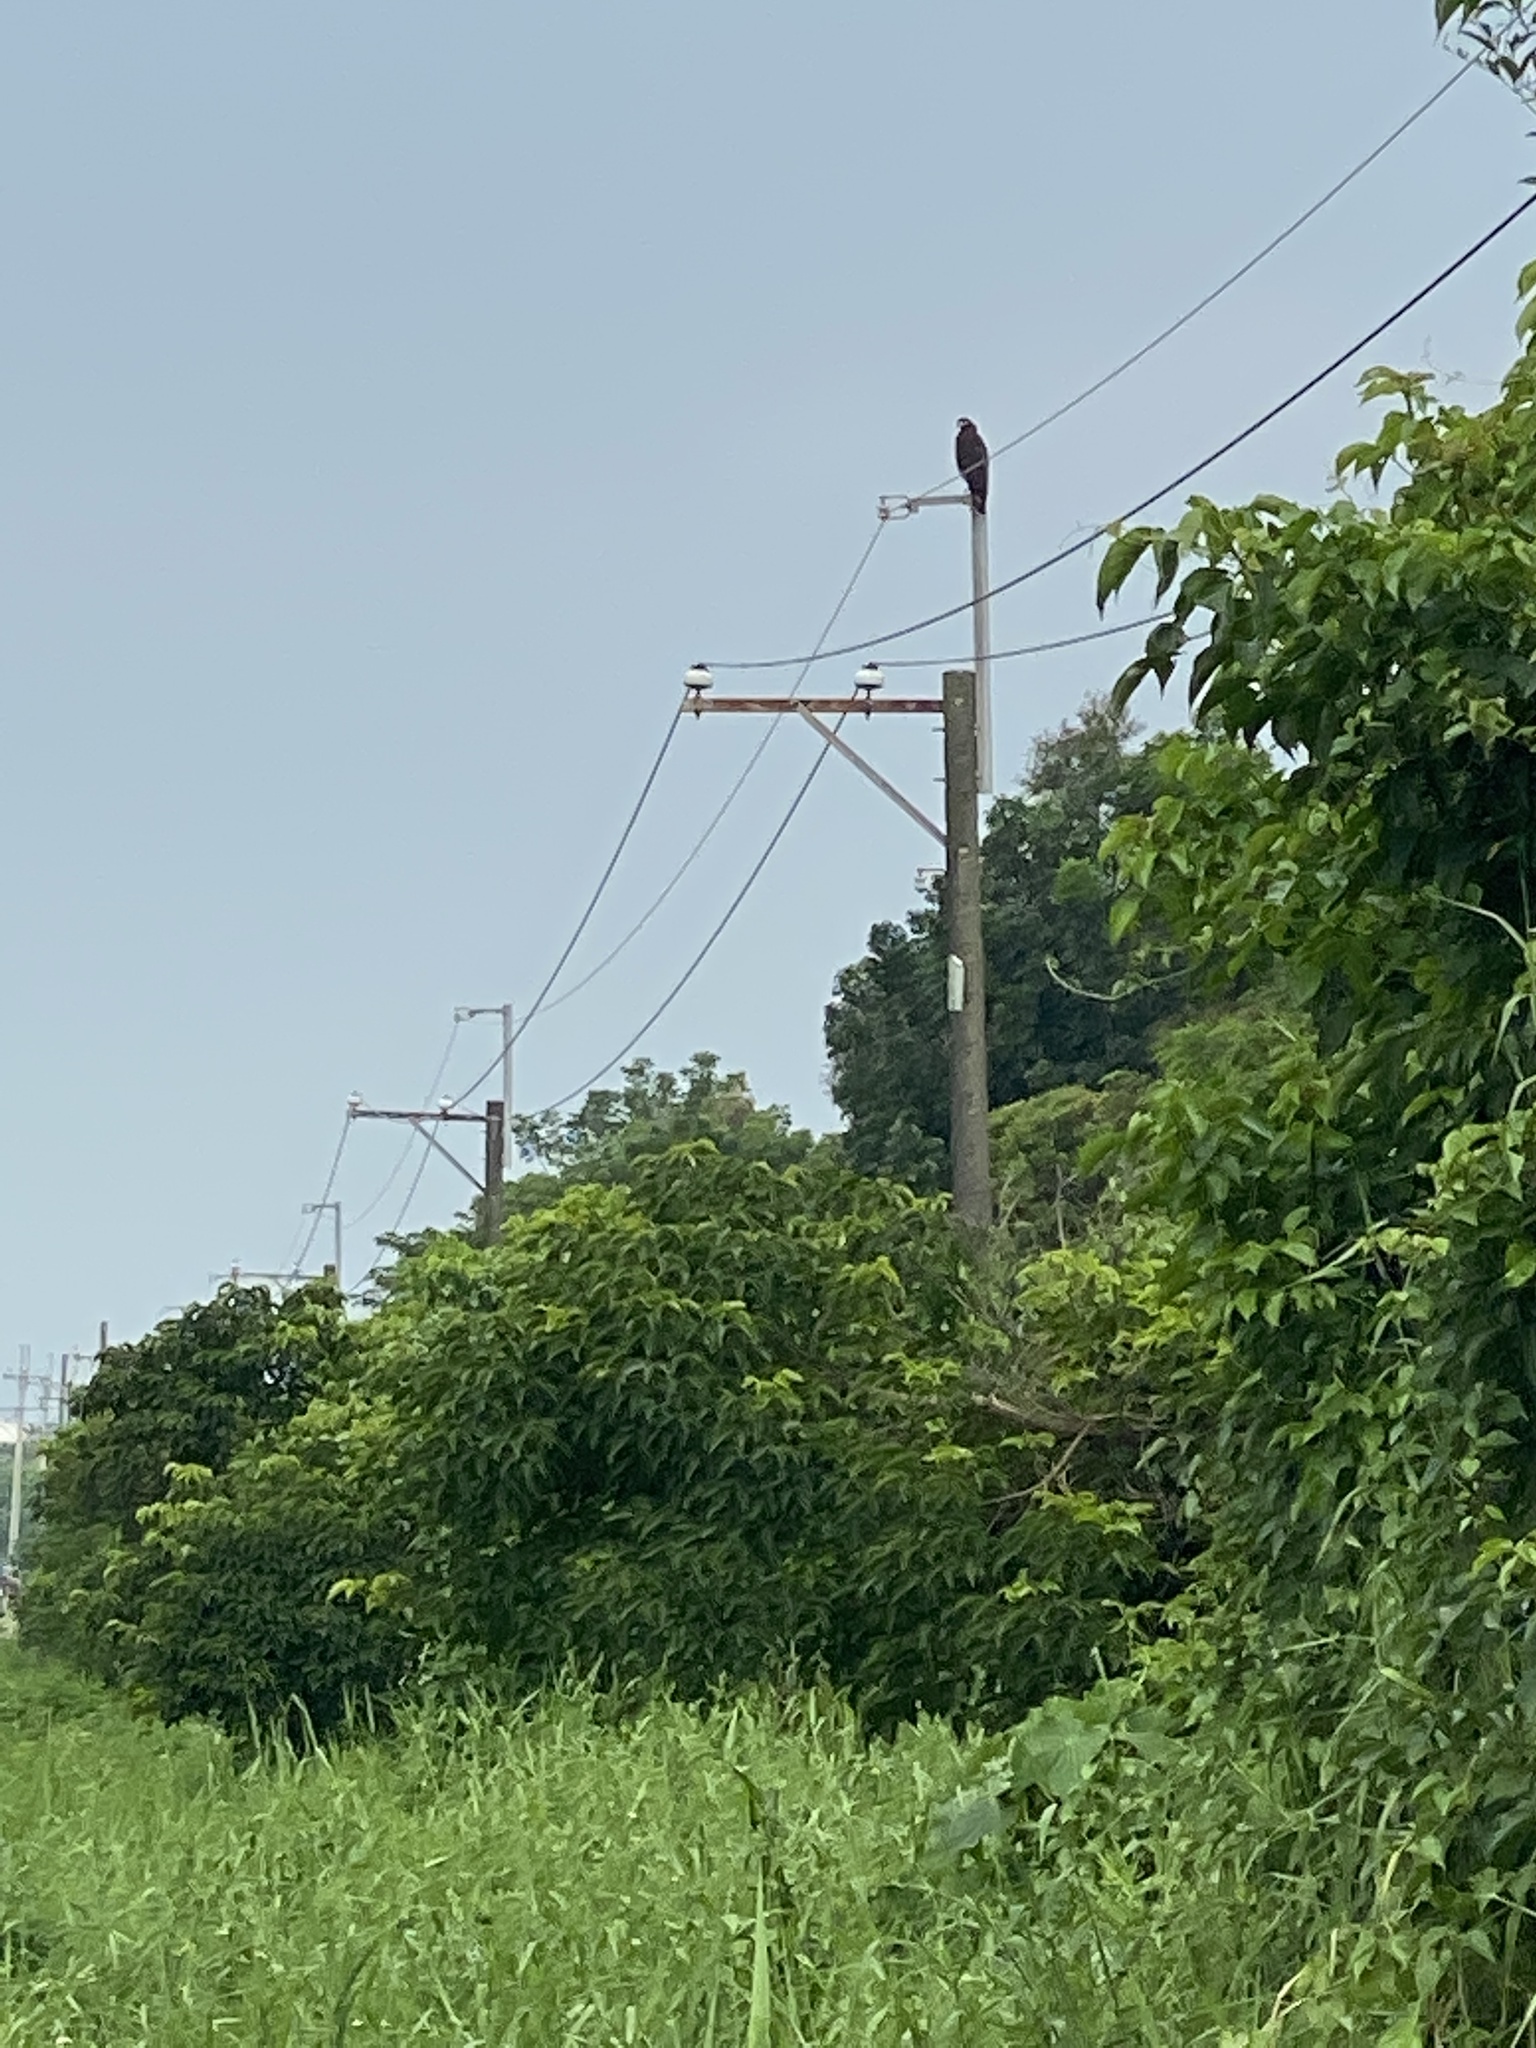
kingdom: Animalia
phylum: Chordata
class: Aves
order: Accipitriformes
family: Accipitridae
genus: Spilornis
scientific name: Spilornis cheela
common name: Crested serpent eagle
